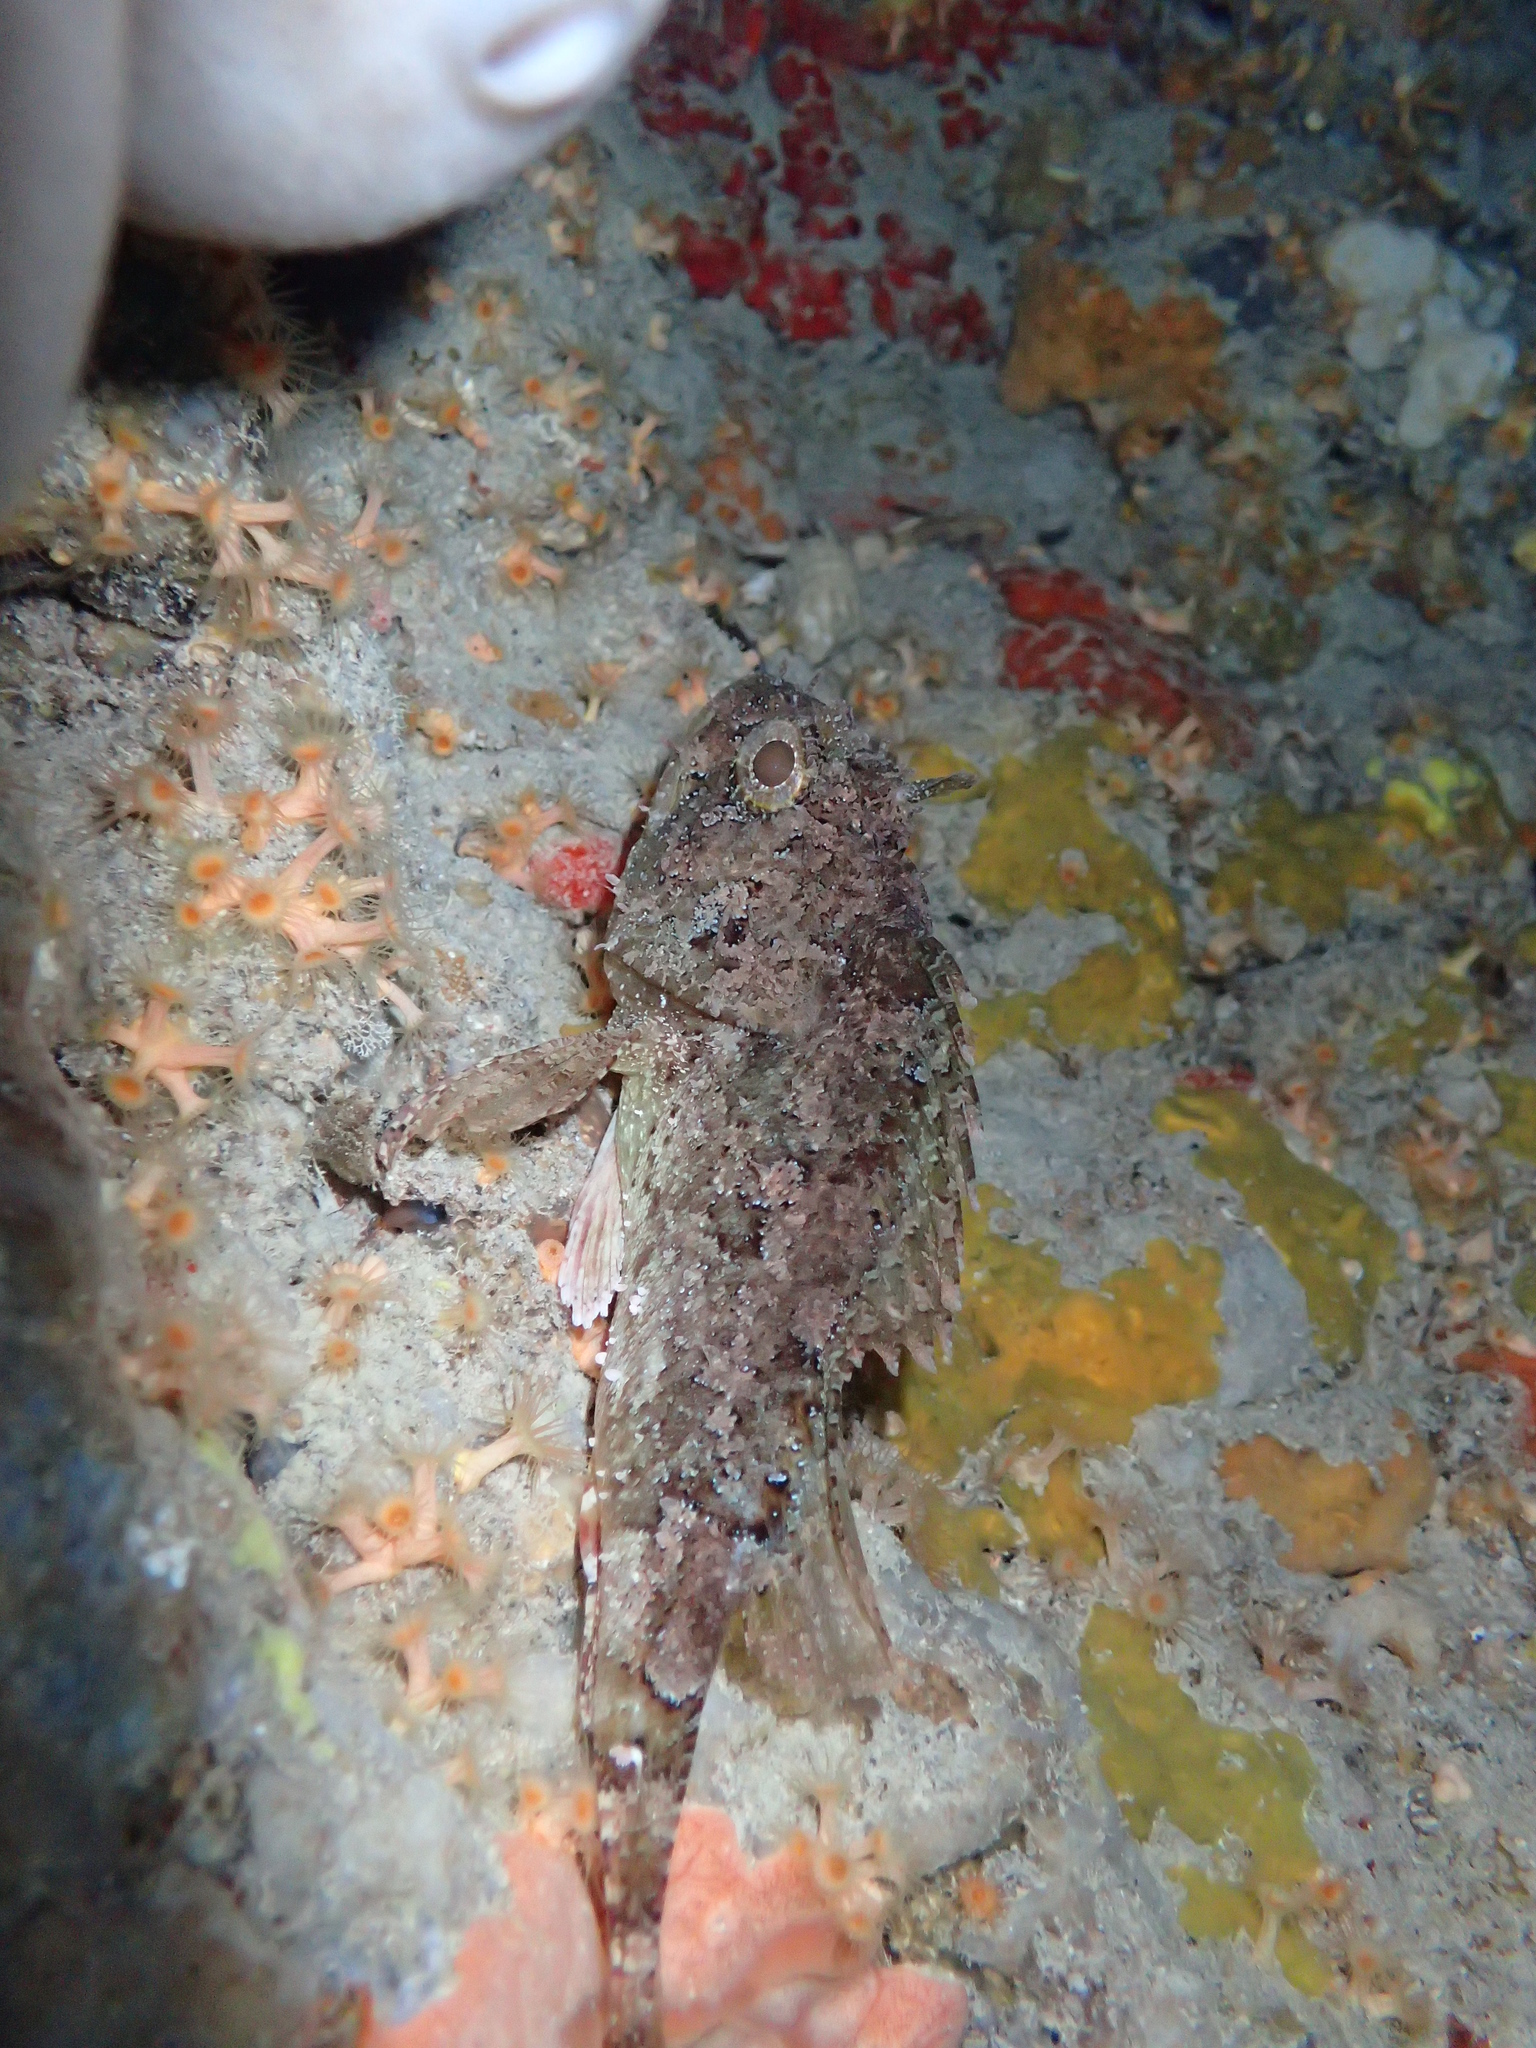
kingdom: Animalia
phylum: Chordata
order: Scorpaeniformes
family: Scorpaenidae
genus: Scorpaena
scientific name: Scorpaena porcus
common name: Black scorpionfish
